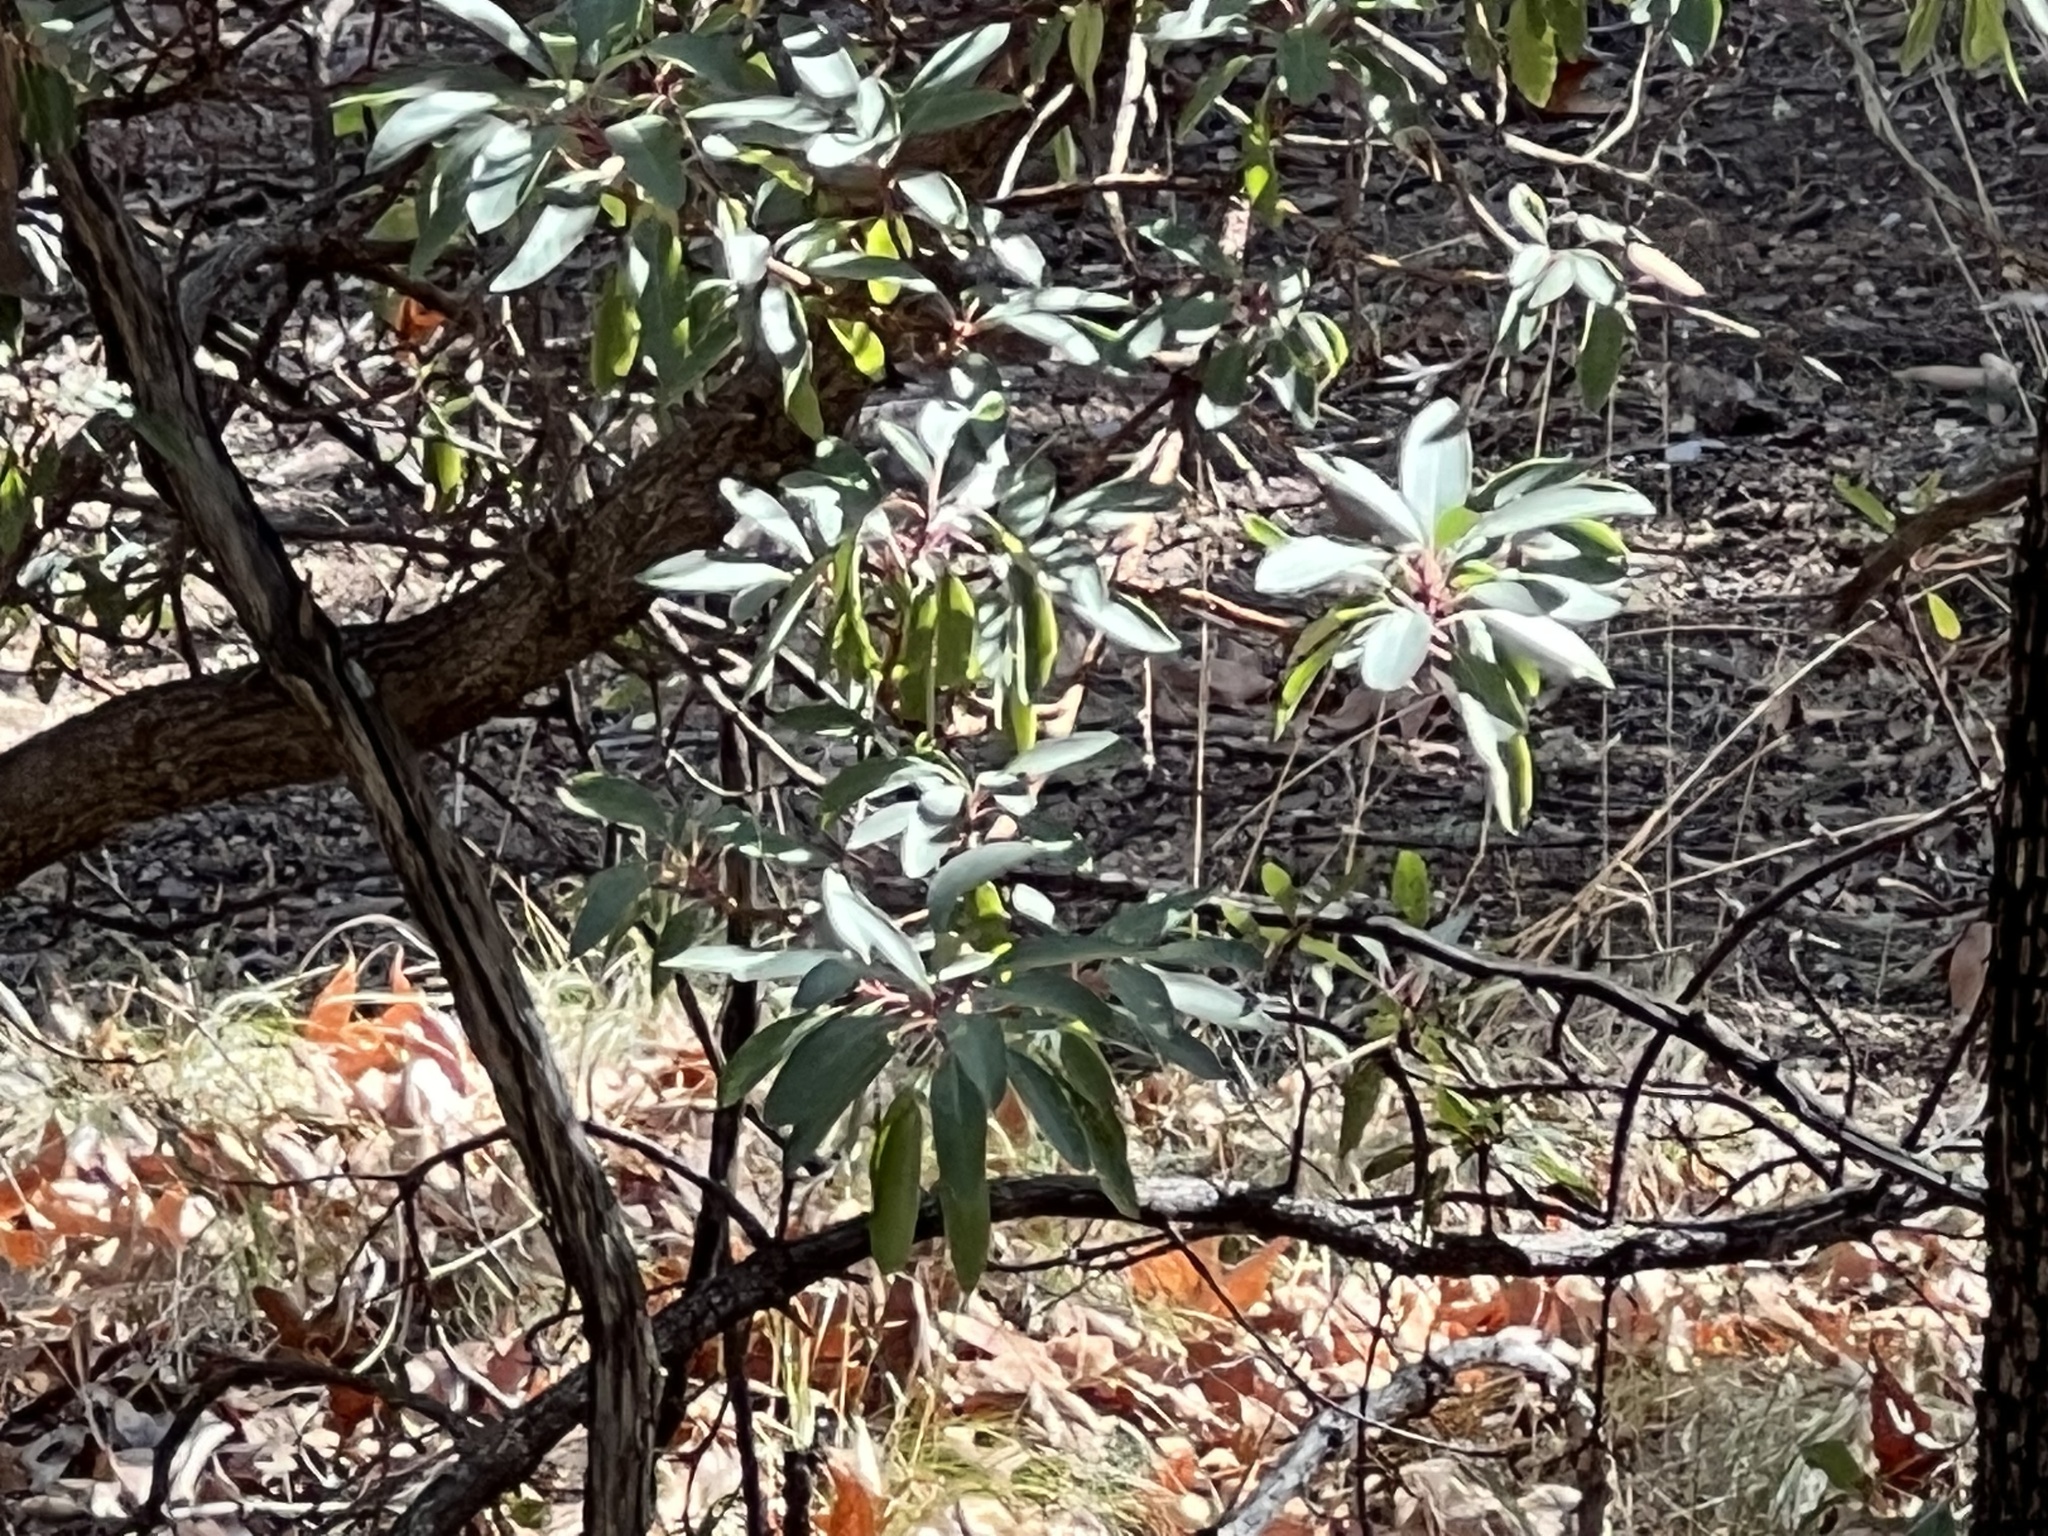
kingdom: Plantae
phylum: Tracheophyta
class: Magnoliopsida
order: Ericales
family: Ericaceae
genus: Arbutus
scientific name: Arbutus arizonica
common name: Arizona madrone
